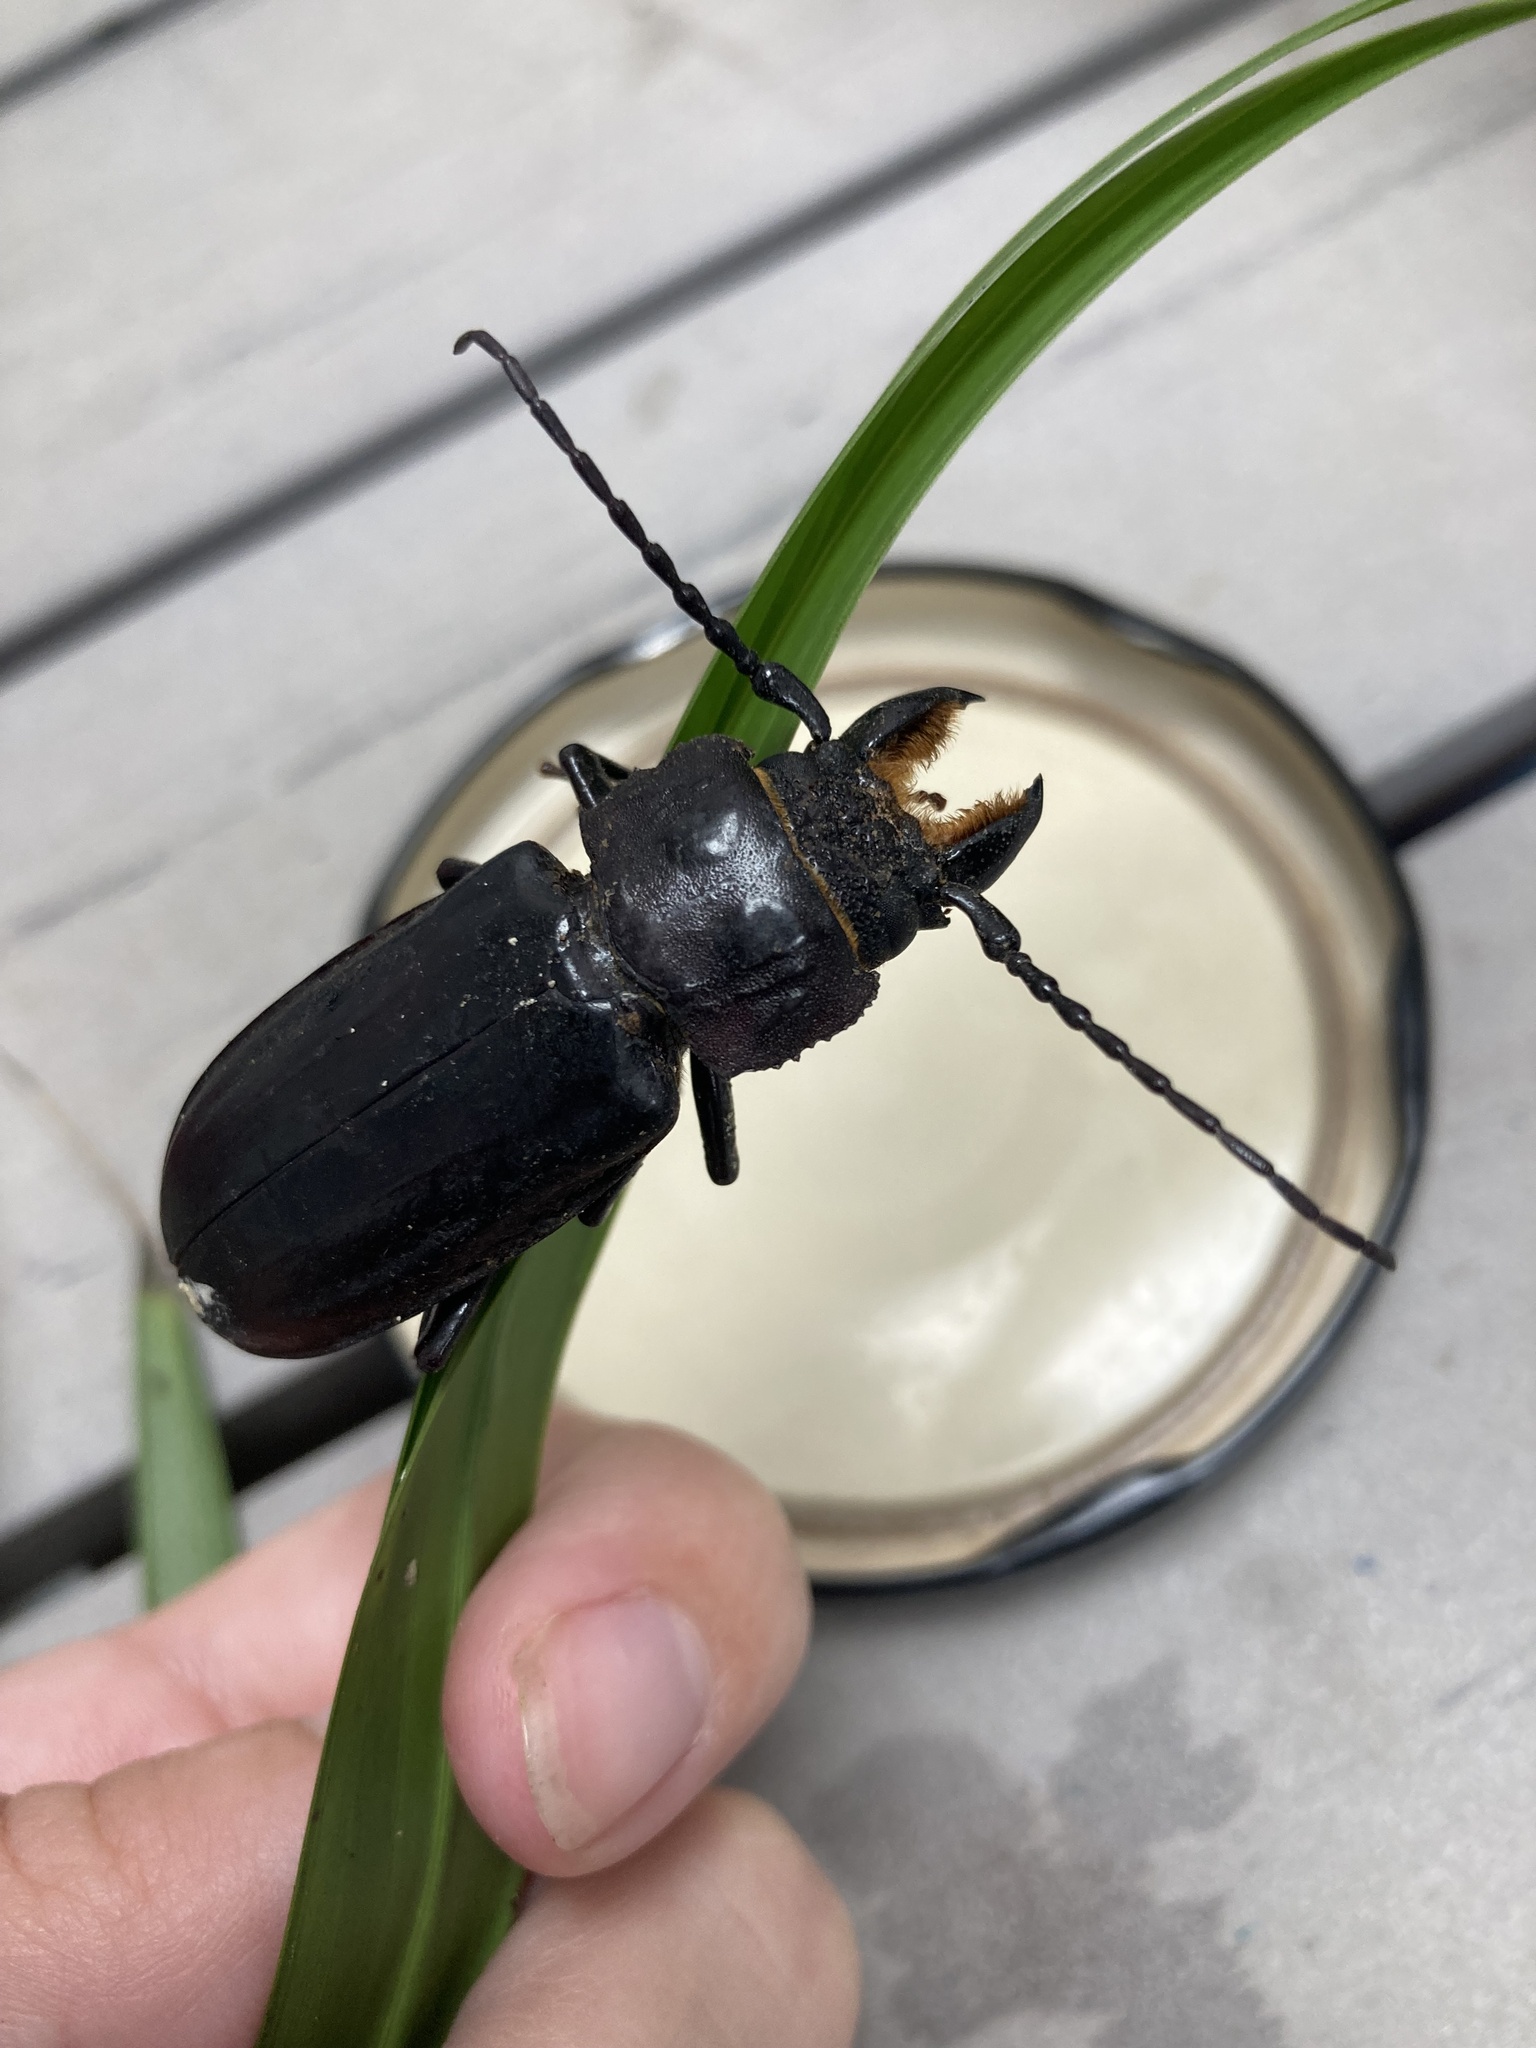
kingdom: Animalia
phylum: Arthropoda
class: Insecta
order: Coleoptera
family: Cerambycidae
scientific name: Cerambycidae
